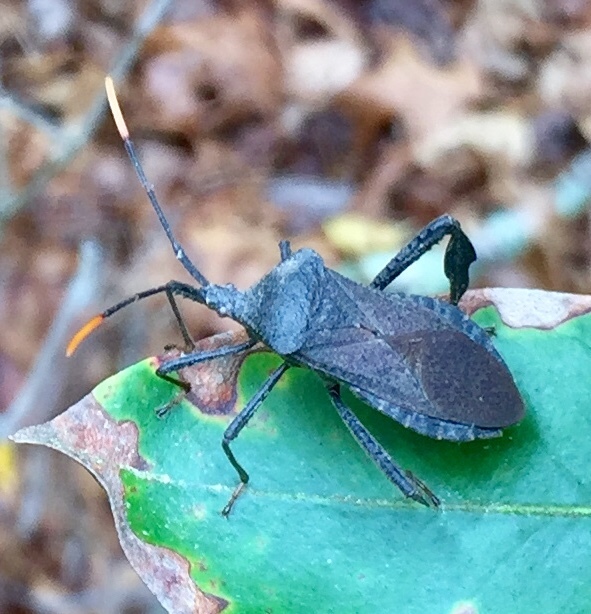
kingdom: Animalia
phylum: Arthropoda
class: Insecta
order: Hemiptera
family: Coreidae
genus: Acanthocephala
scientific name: Acanthocephala terminalis
